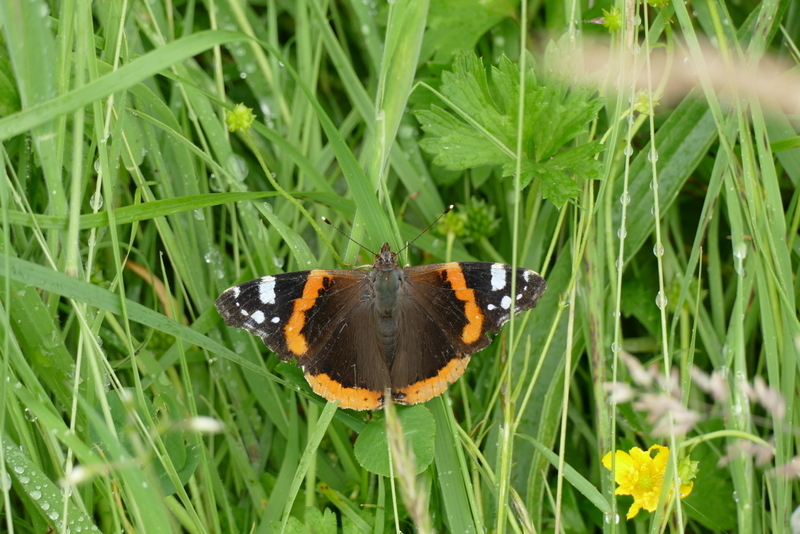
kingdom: Animalia
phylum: Arthropoda
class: Insecta
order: Lepidoptera
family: Nymphalidae
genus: Vanessa
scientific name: Vanessa atalanta
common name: Red admiral
